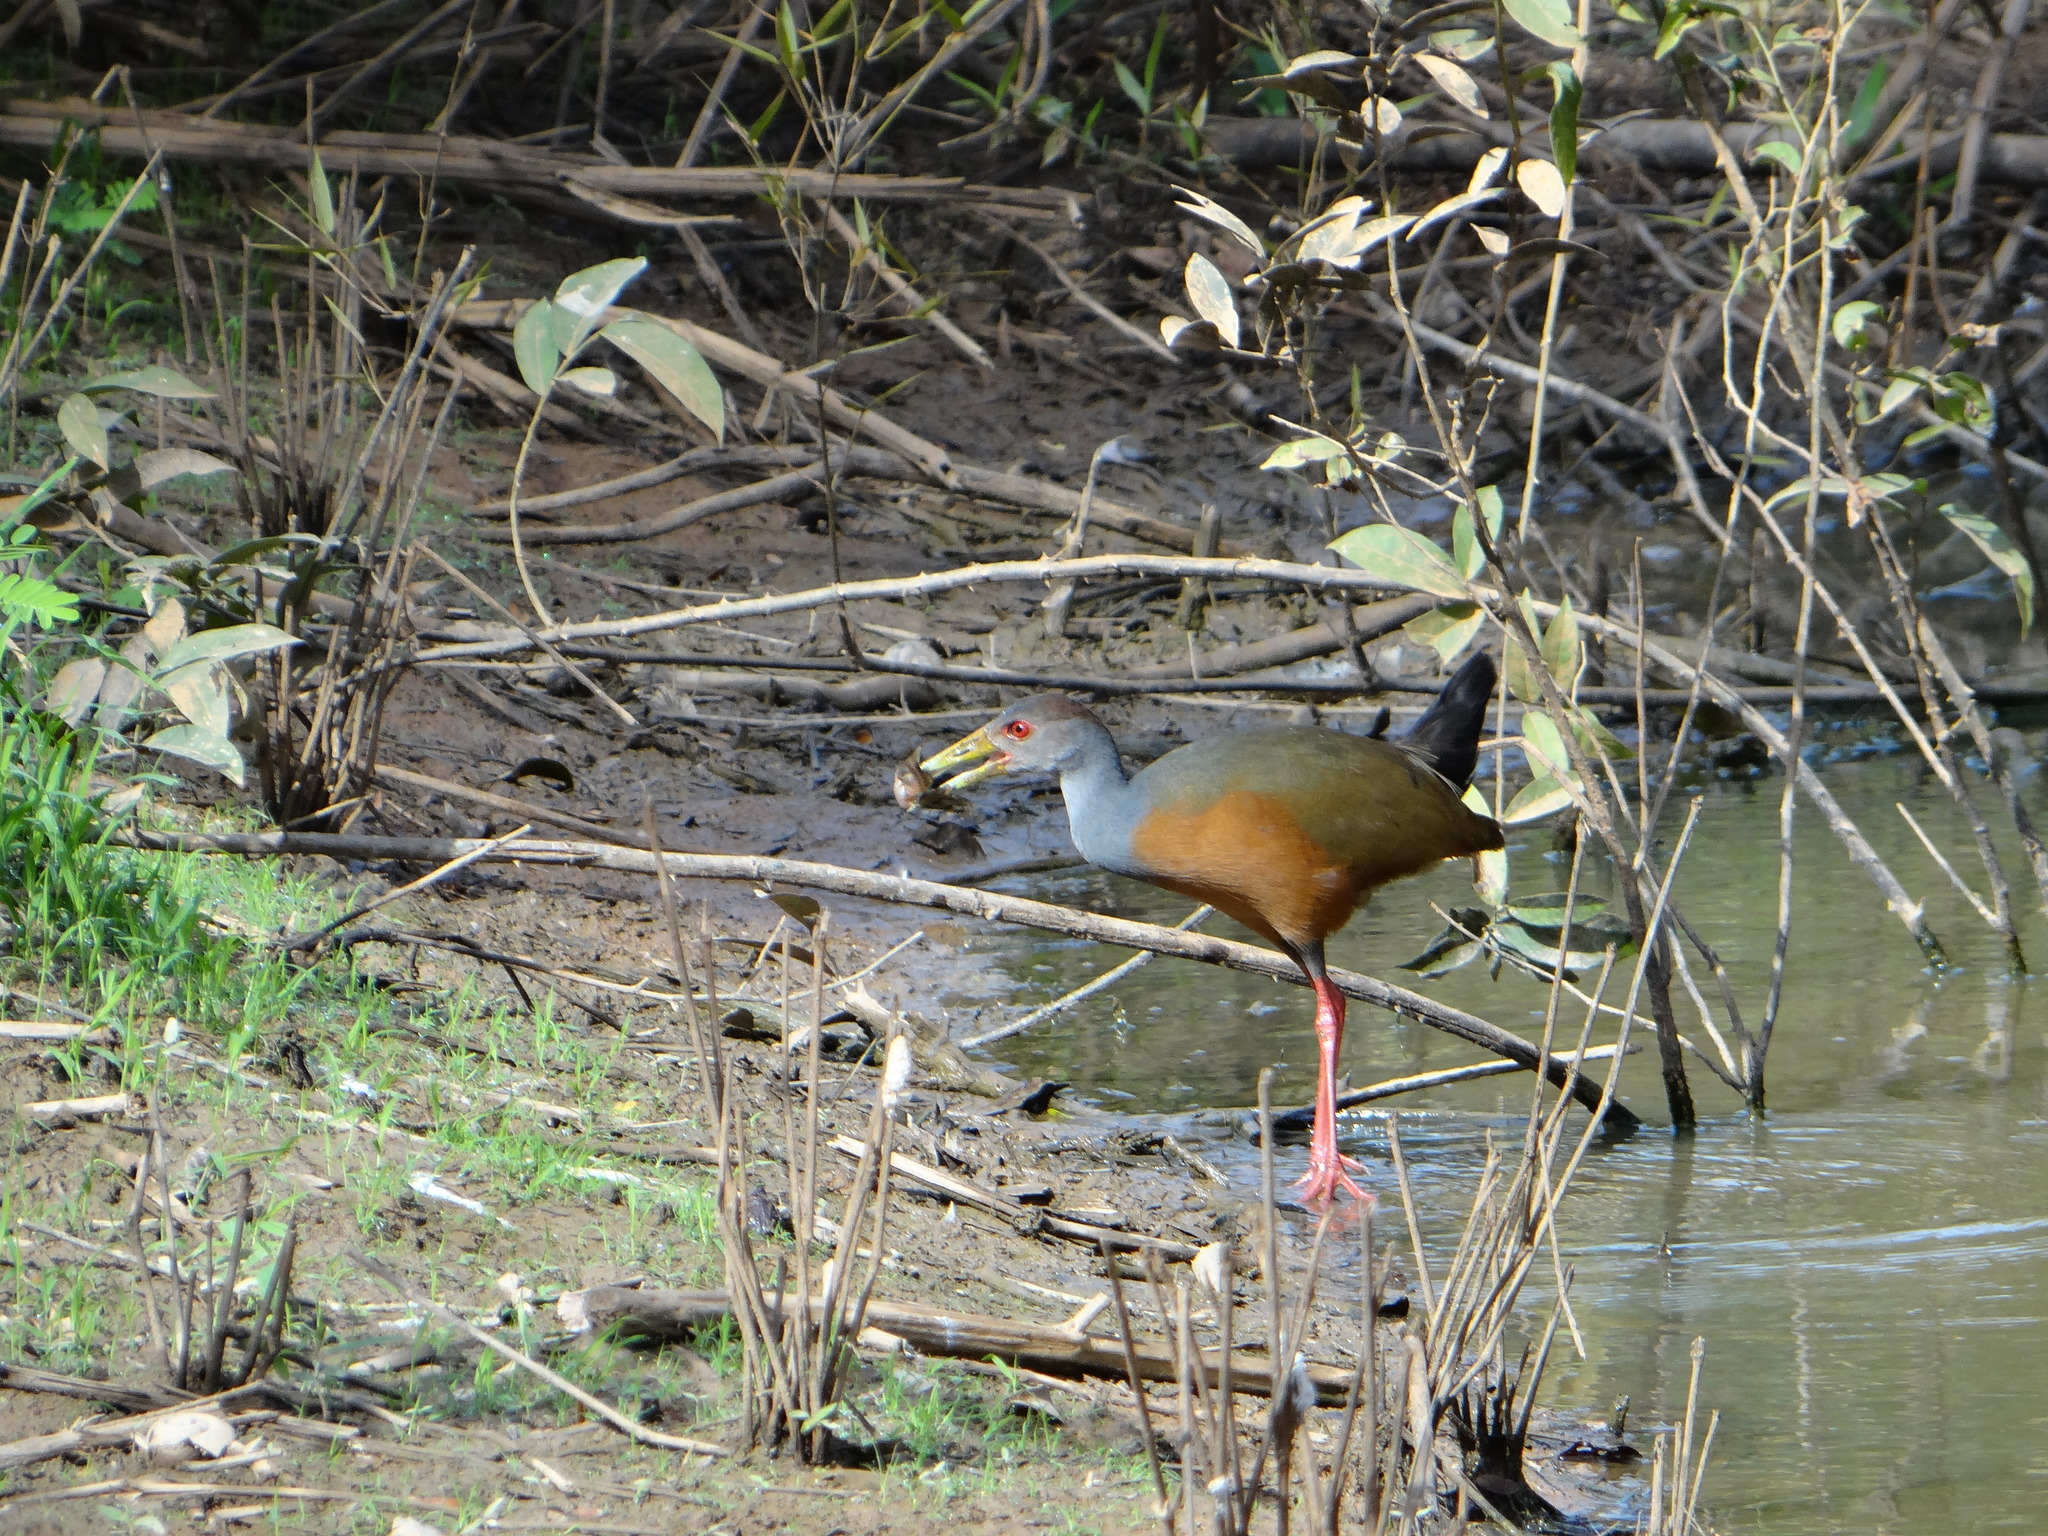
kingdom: Animalia
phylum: Chordata
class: Aves
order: Gruiformes
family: Rallidae
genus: Aramides
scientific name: Aramides cajanea
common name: Gray-necked wood-rail
